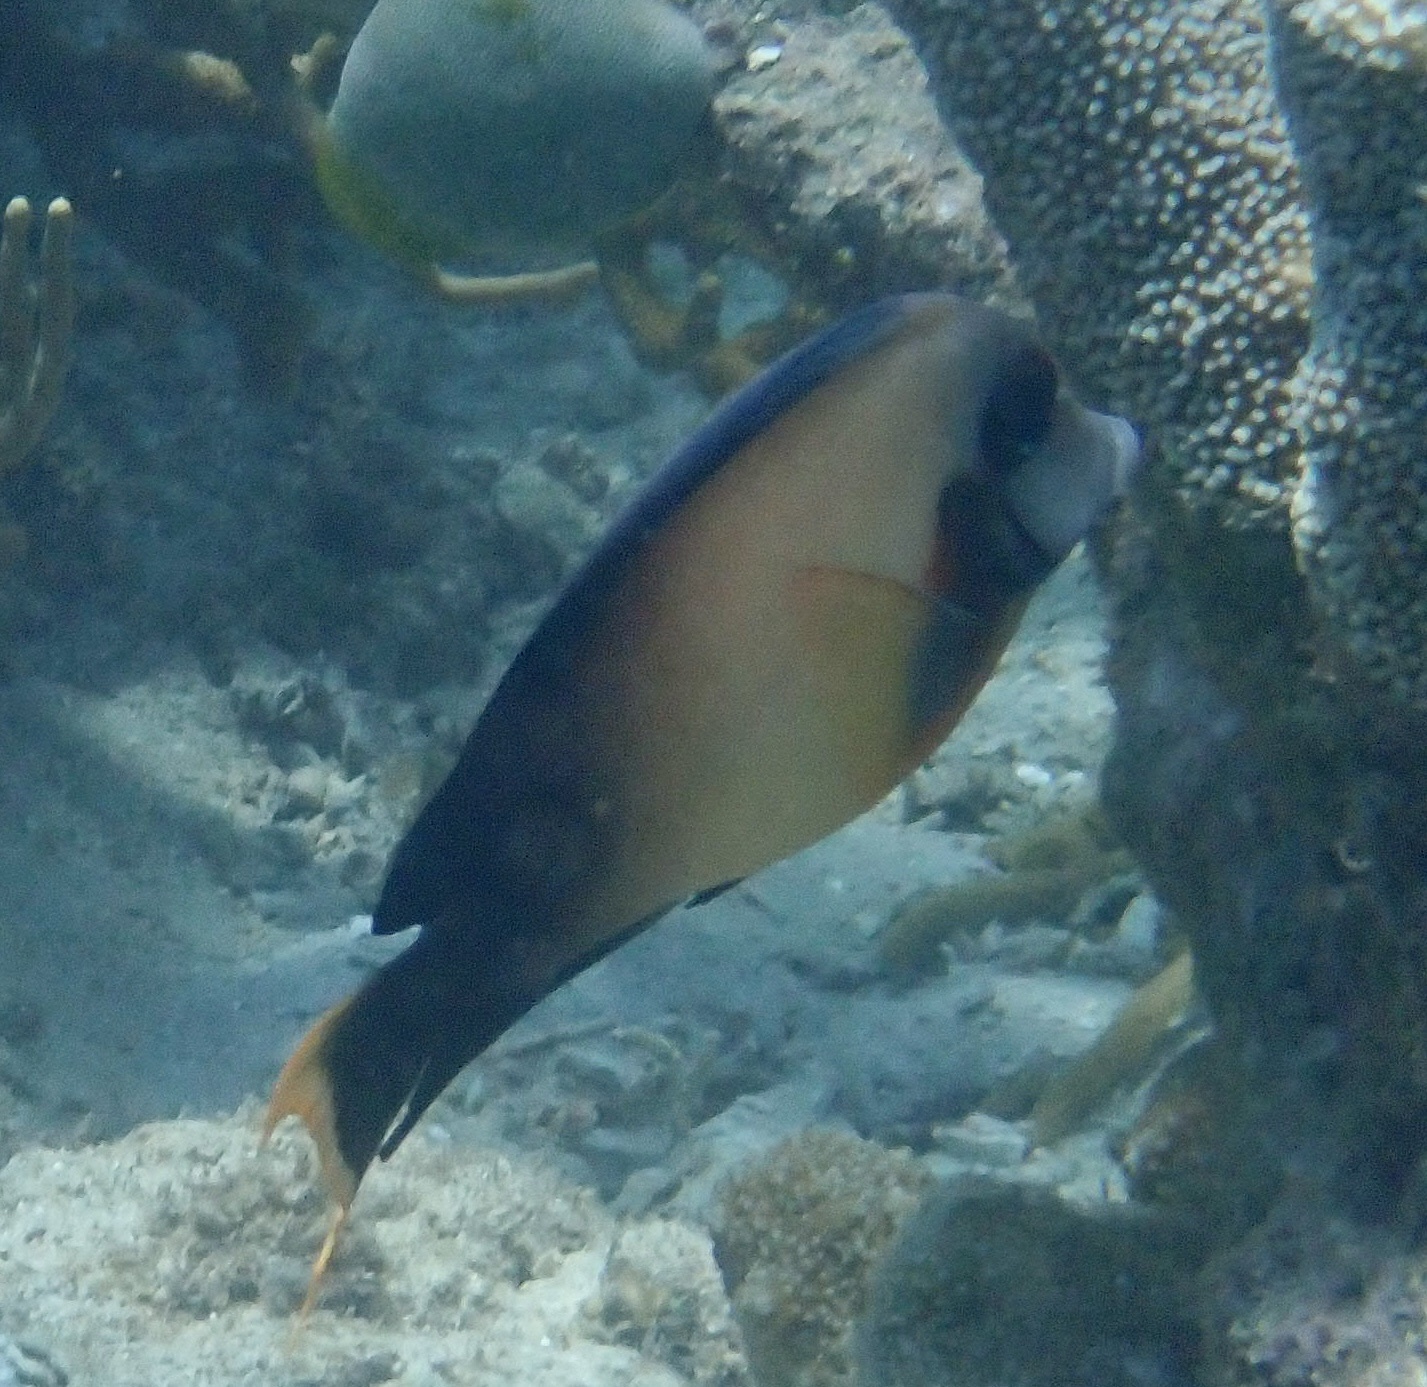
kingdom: Animalia
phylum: Chordata
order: Perciformes
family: Acanthuridae
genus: Acanthurus
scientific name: Acanthurus pyroferus
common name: Chocolate surgeonfish
